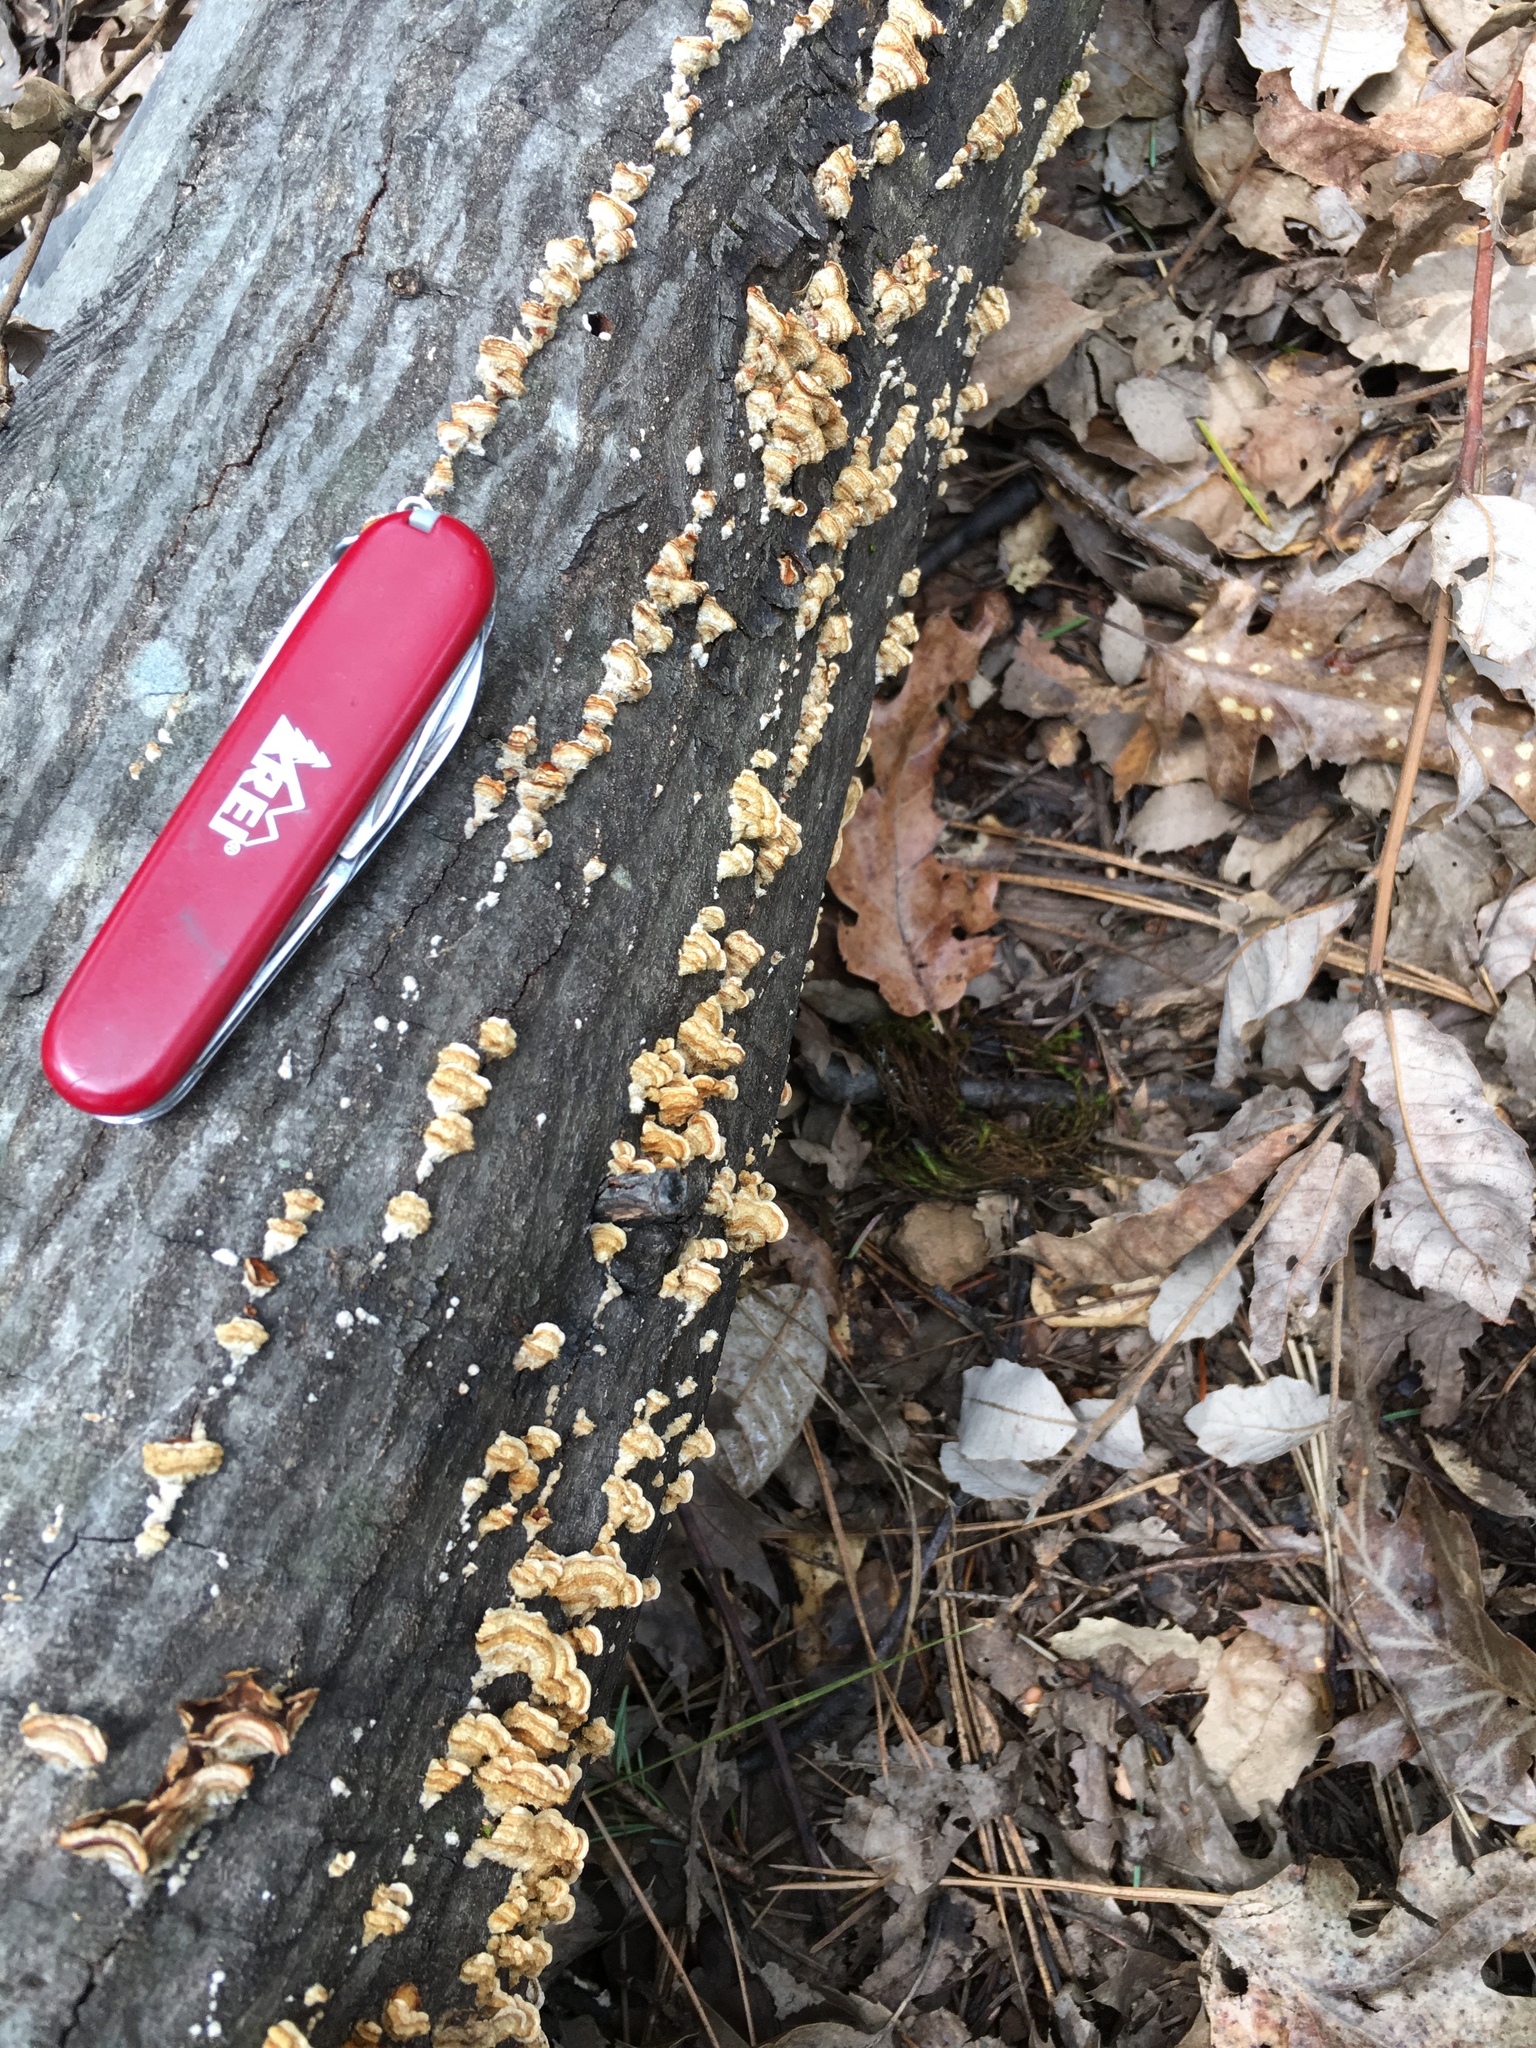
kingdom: Fungi
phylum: Basidiomycota
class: Agaricomycetes
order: Russulales
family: Stereaceae
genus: Stereum
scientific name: Stereum hirsutum
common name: Hairy curtain crust
